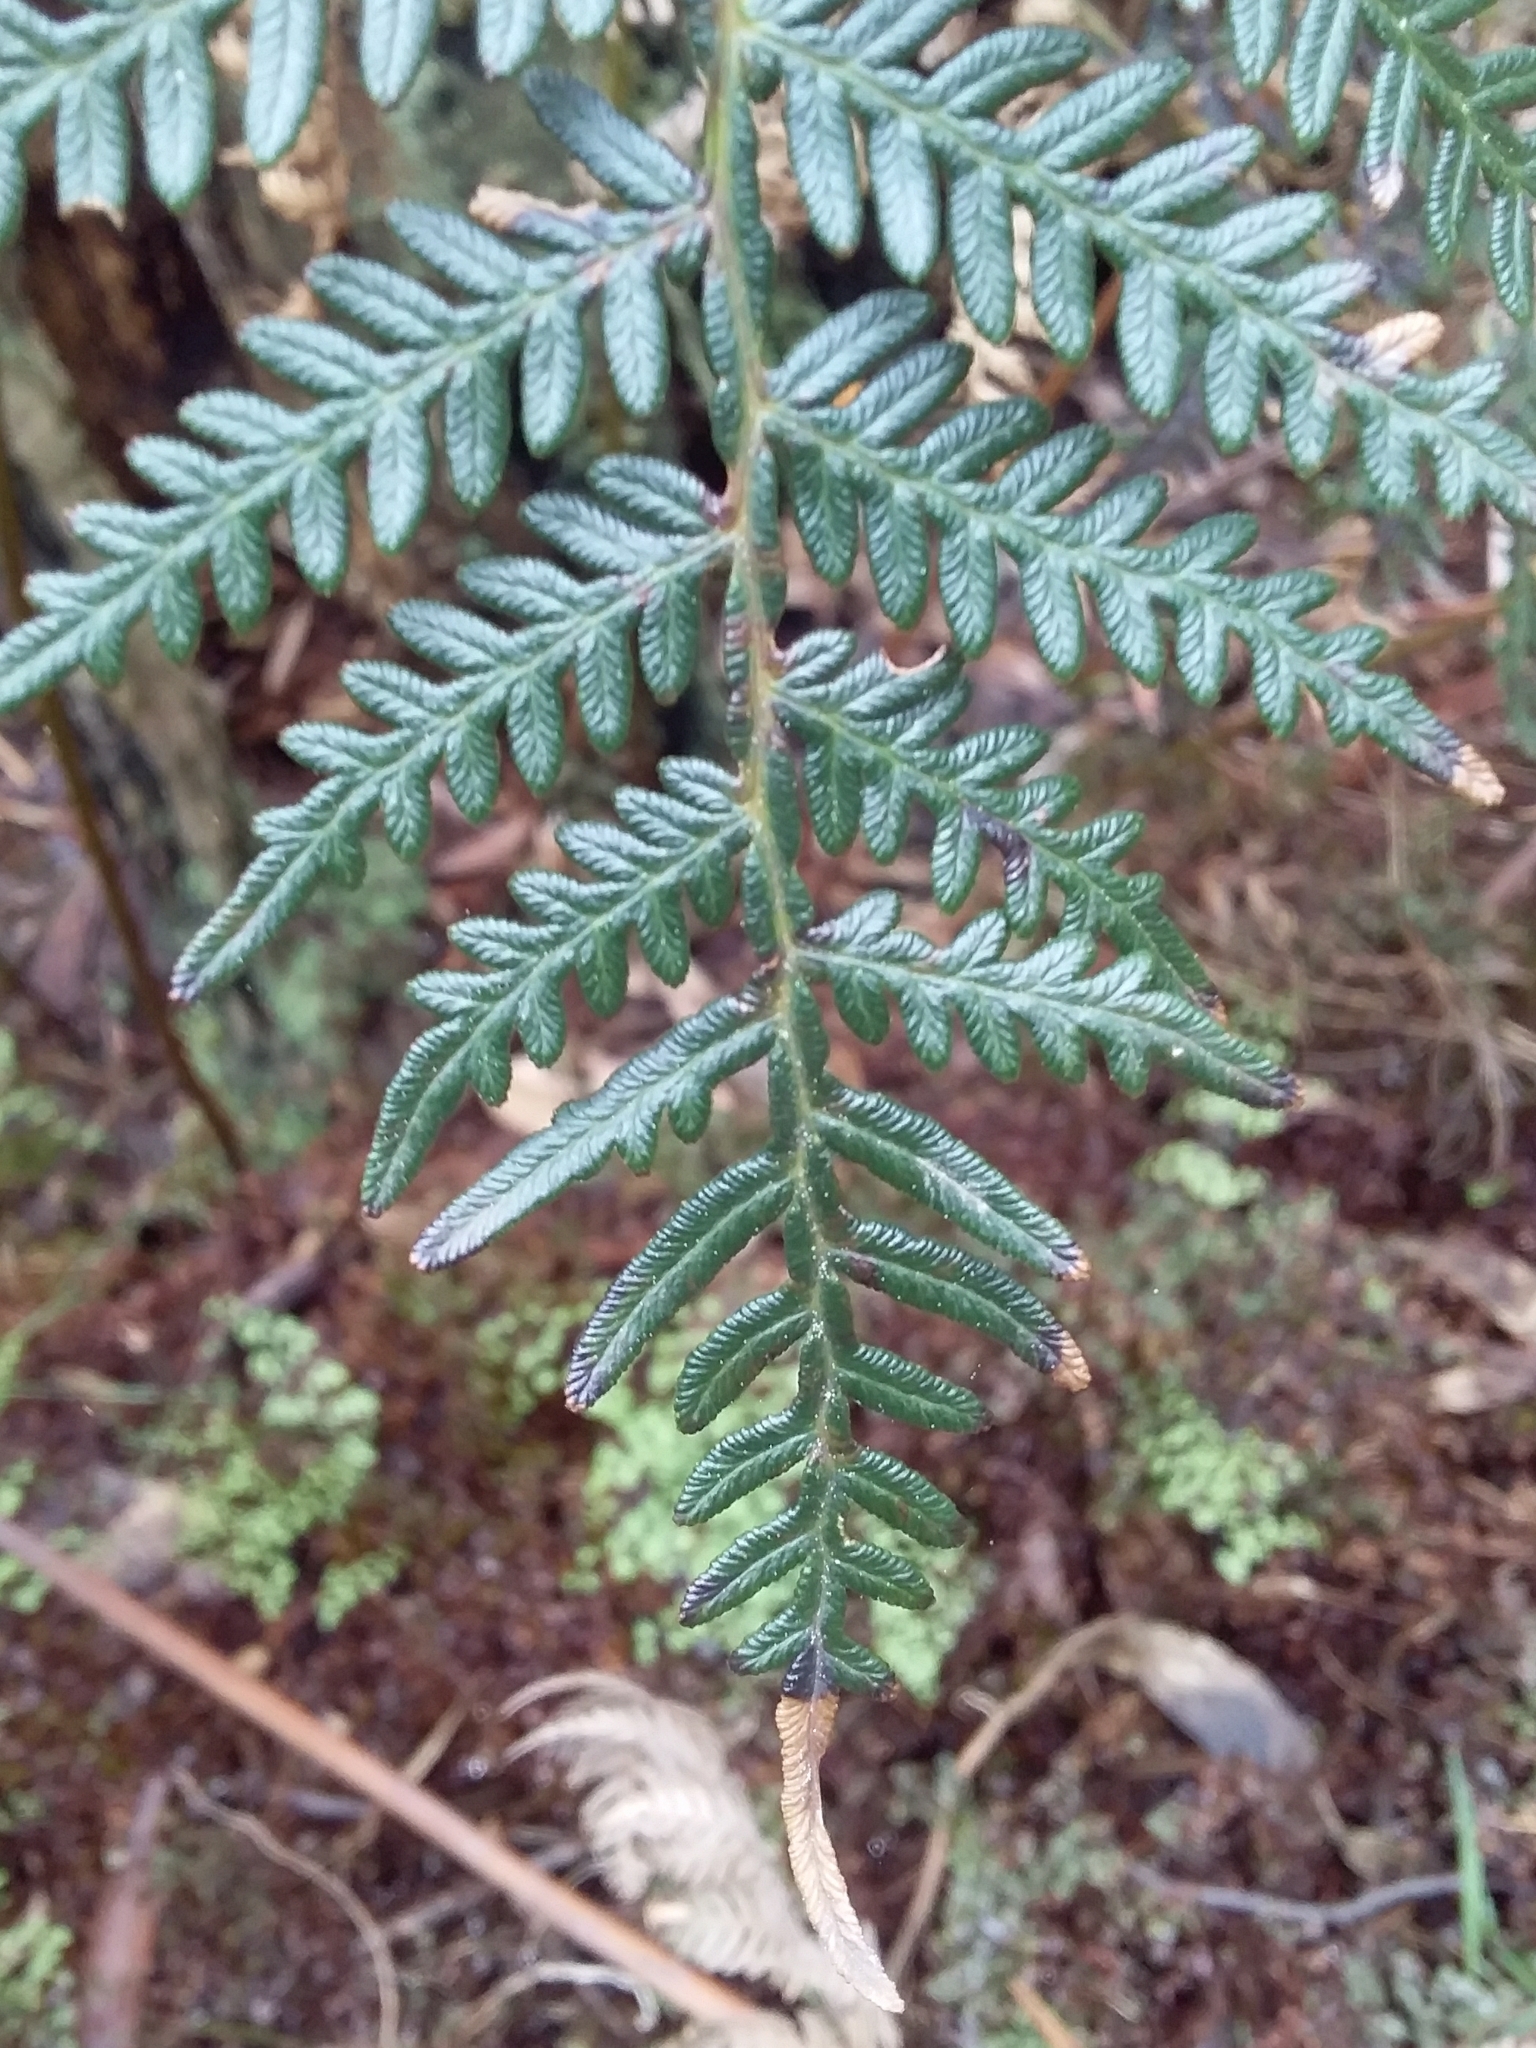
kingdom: Plantae
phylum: Tracheophyta
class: Polypodiopsida
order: Polypodiales
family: Dennstaedtiaceae
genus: Pteridium
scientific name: Pteridium esculentum
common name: Bracken fern
